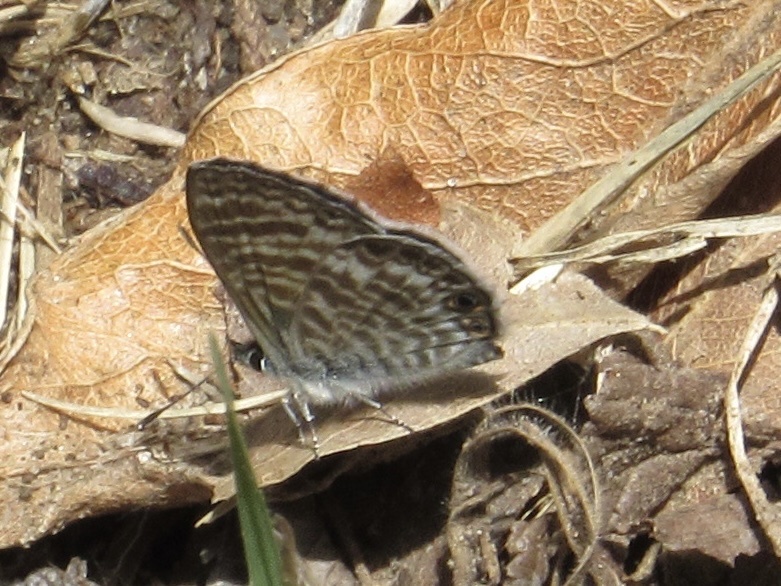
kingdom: Animalia
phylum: Arthropoda
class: Insecta
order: Lepidoptera
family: Lycaenidae
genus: Leptotes
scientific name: Leptotes marina
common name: Marine blue
